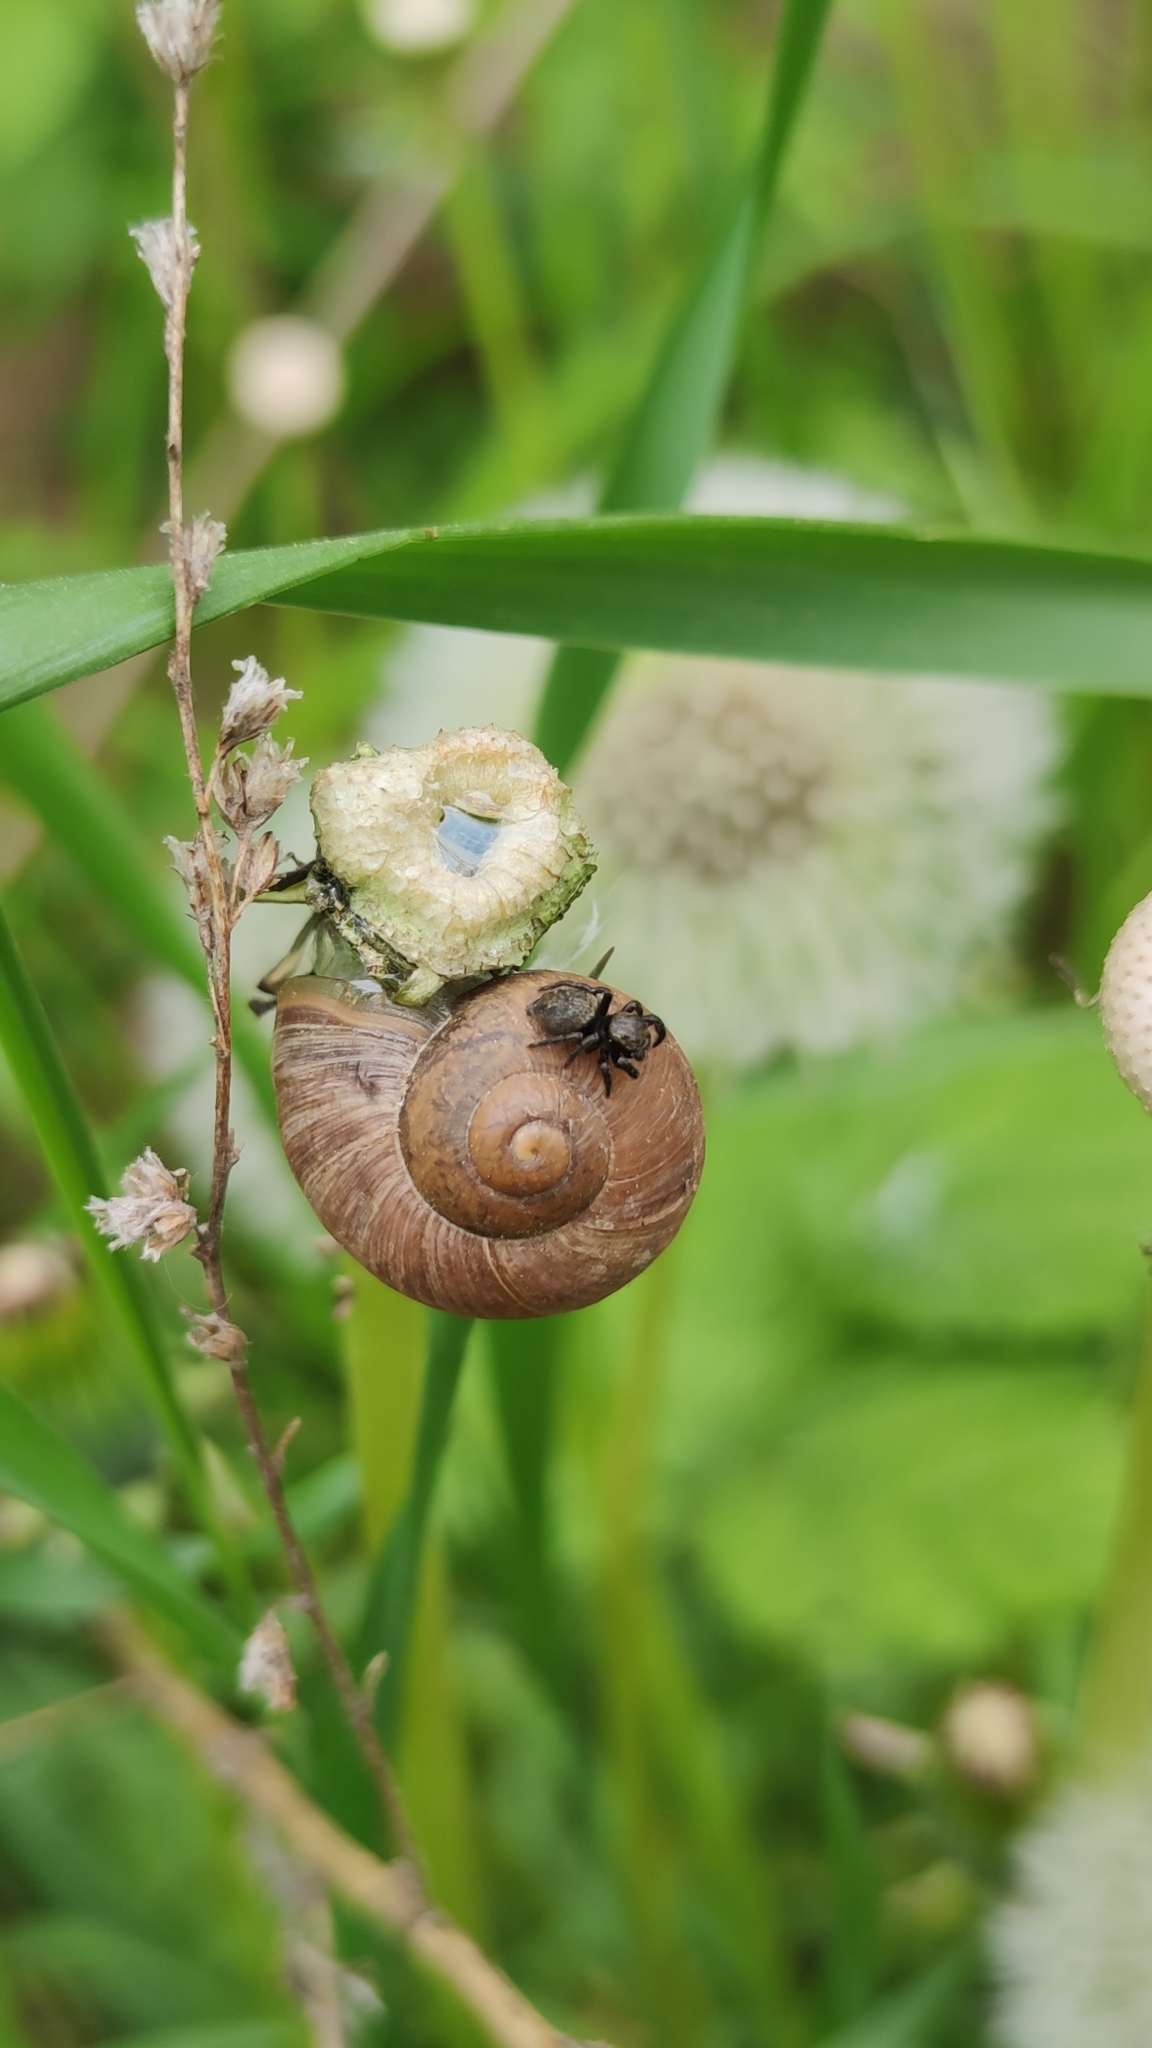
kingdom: Animalia
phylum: Arthropoda
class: Arachnida
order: Araneae
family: Salticidae
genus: Evarcha
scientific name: Evarcha arcuata
